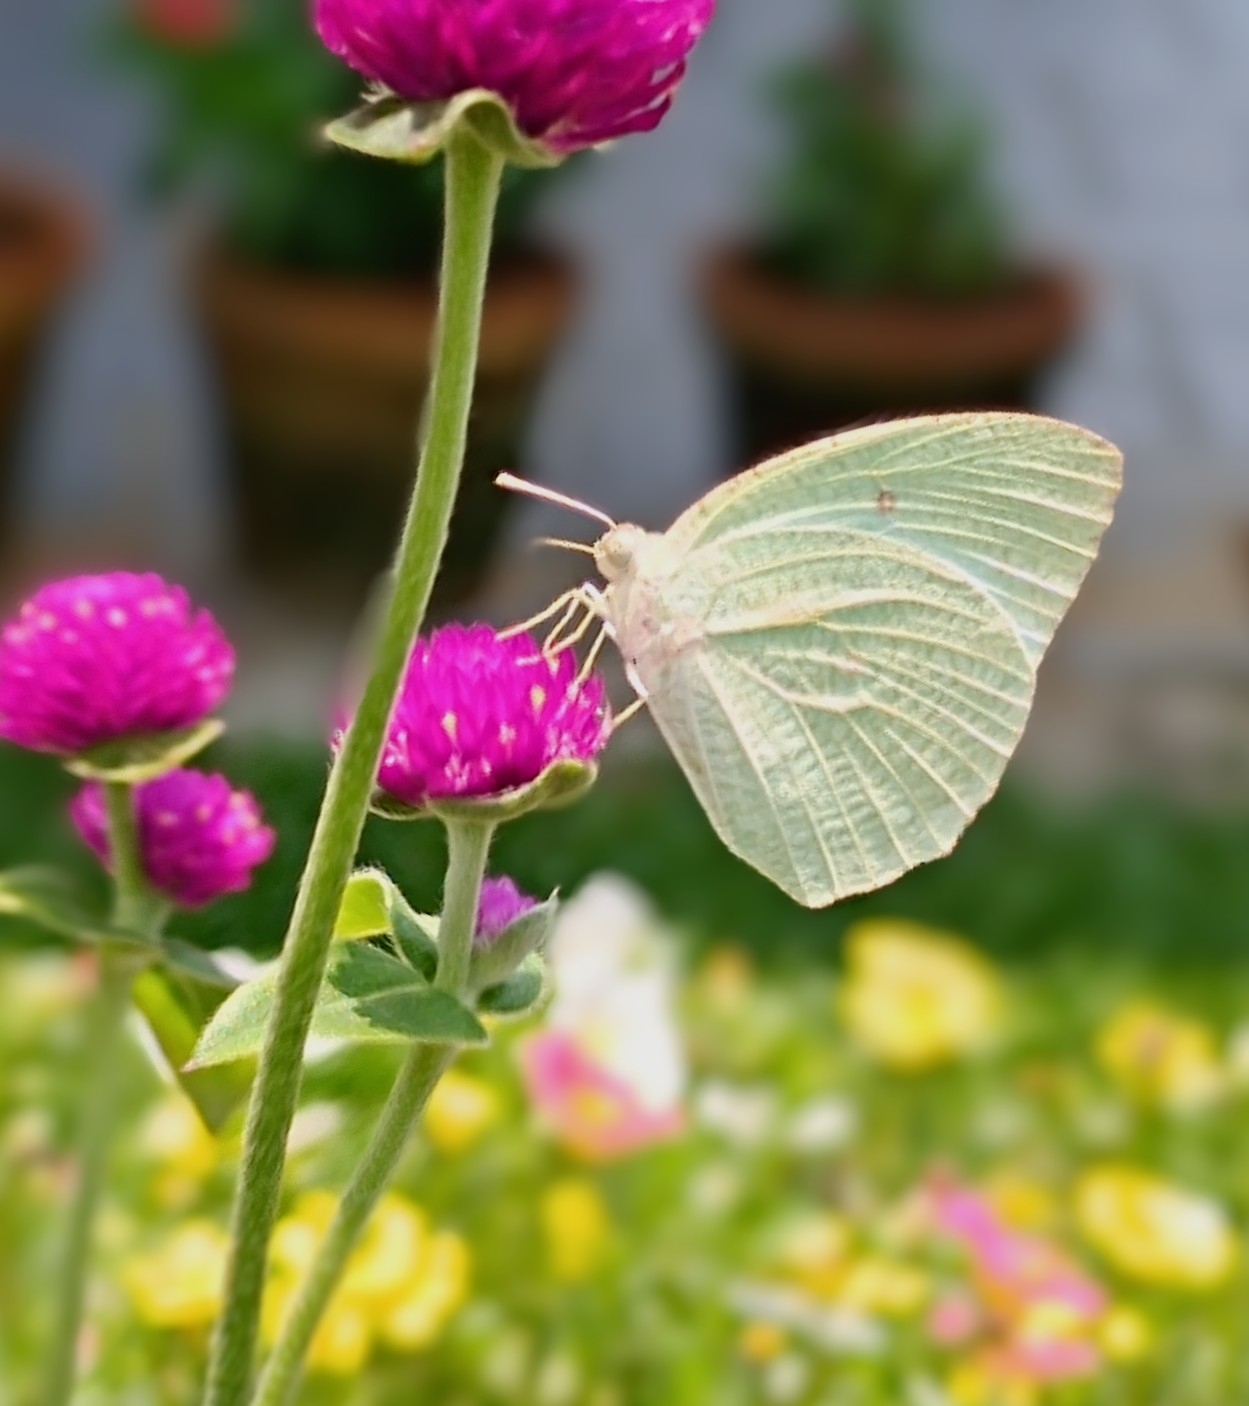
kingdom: Animalia
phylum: Arthropoda
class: Insecta
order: Lepidoptera
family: Pieridae
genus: Catopsilia
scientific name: Catopsilia pyranthe
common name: Mottled emigrant
